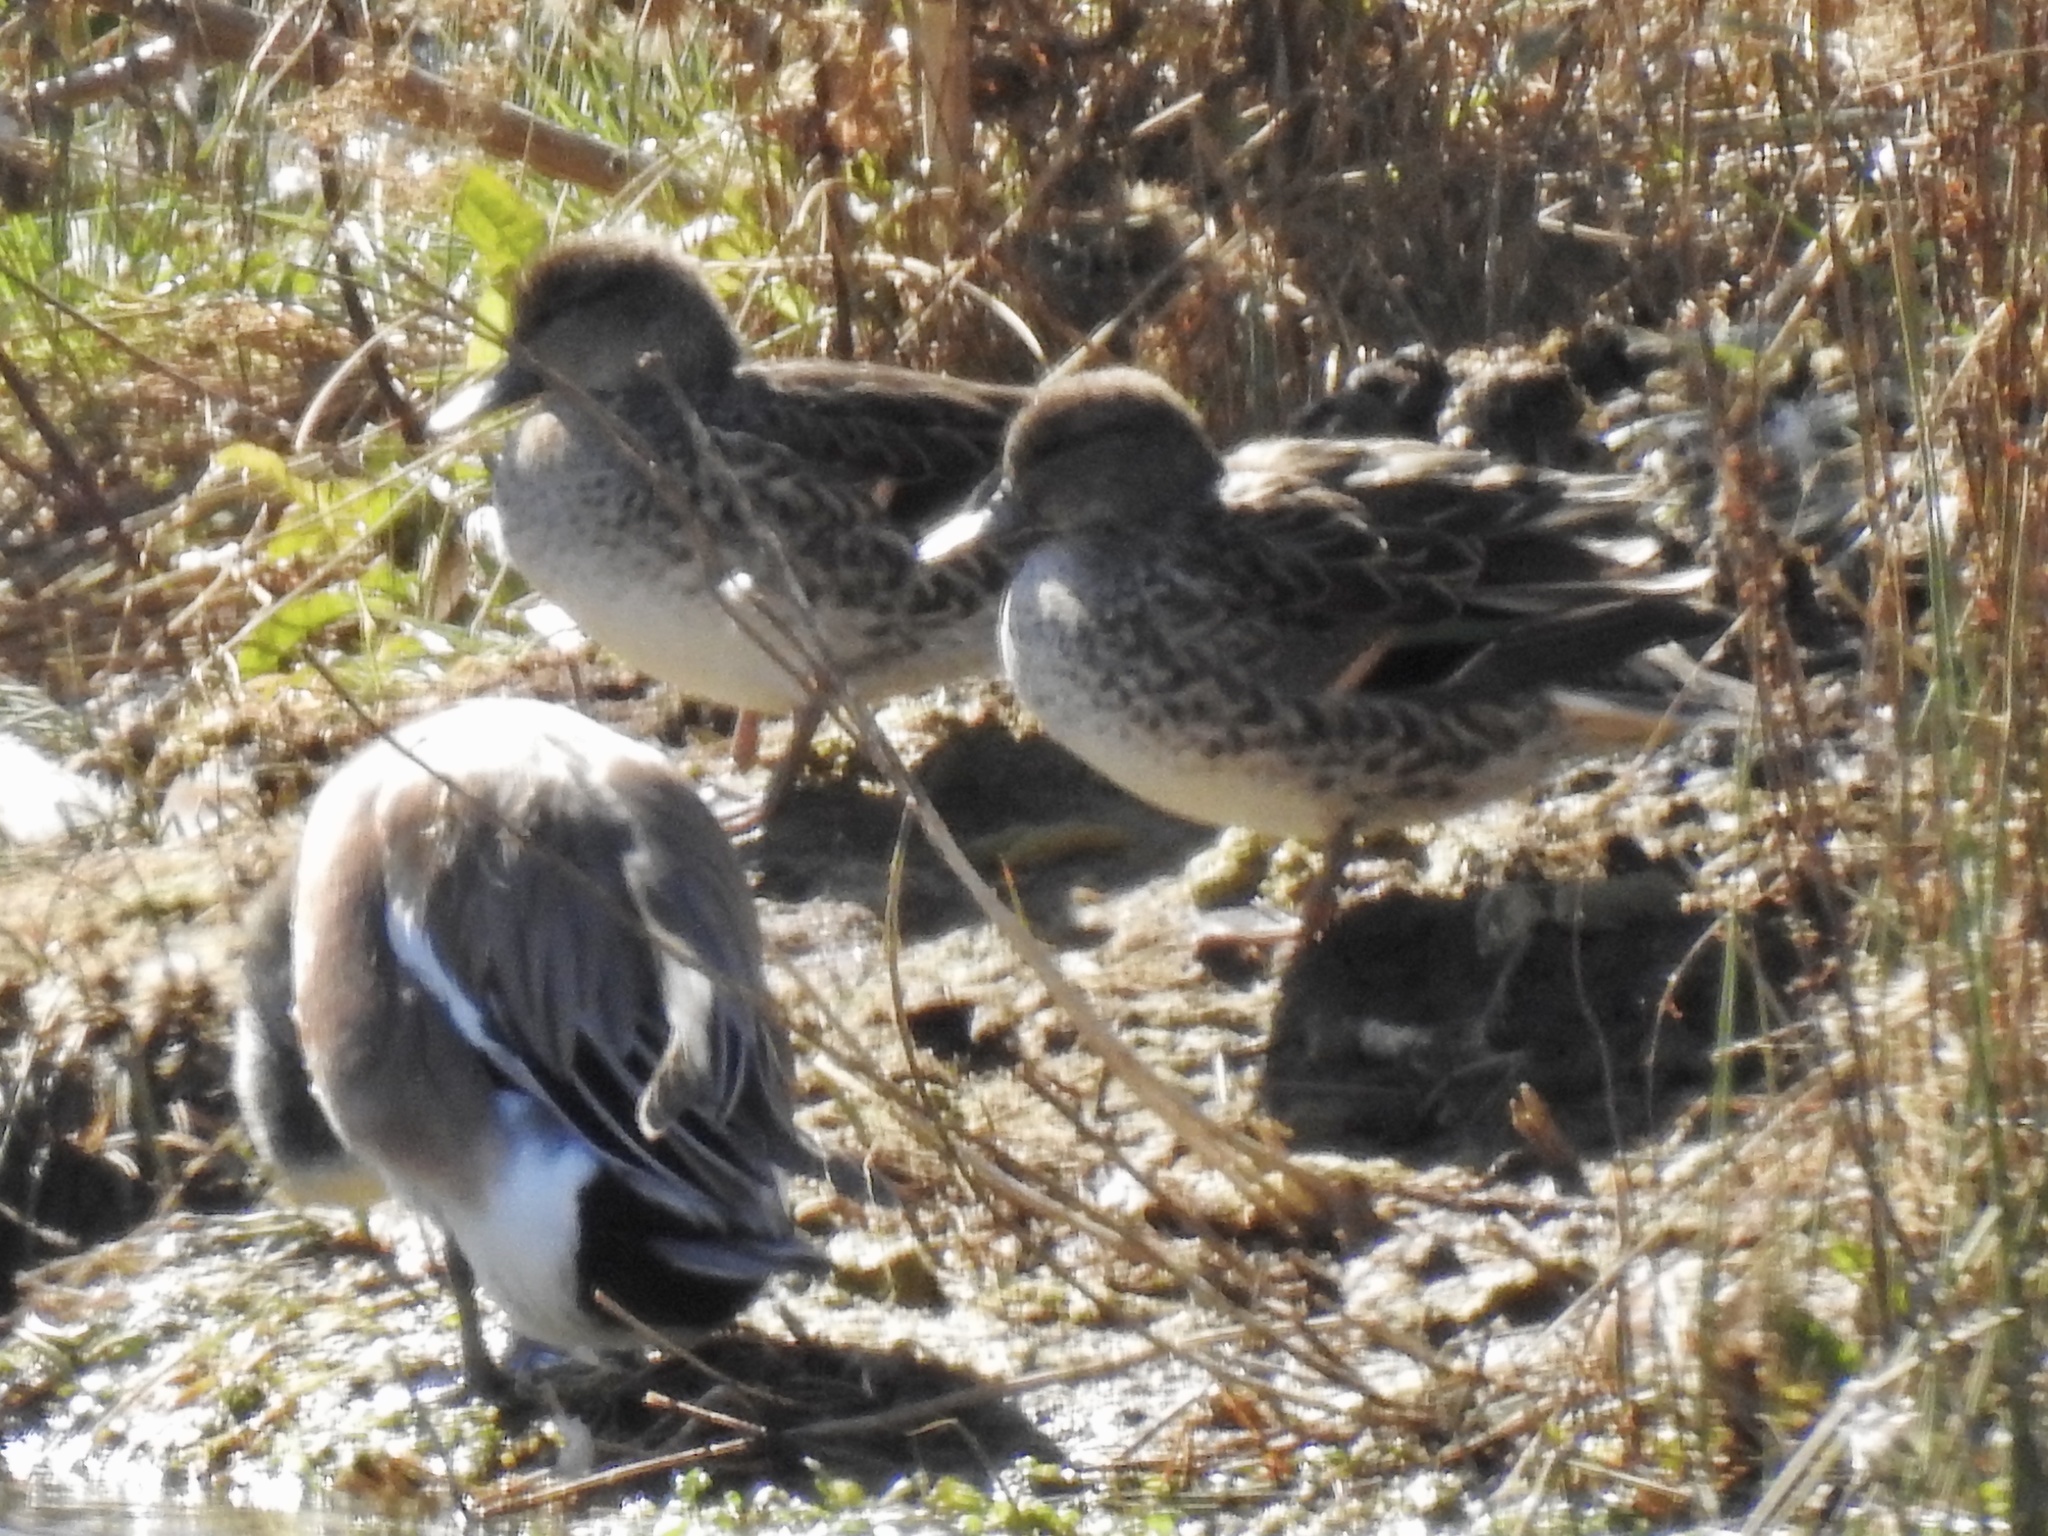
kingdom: Animalia
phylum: Chordata
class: Aves
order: Anseriformes
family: Anatidae
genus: Anas
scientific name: Anas carolinensis
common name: Green-winged teal
